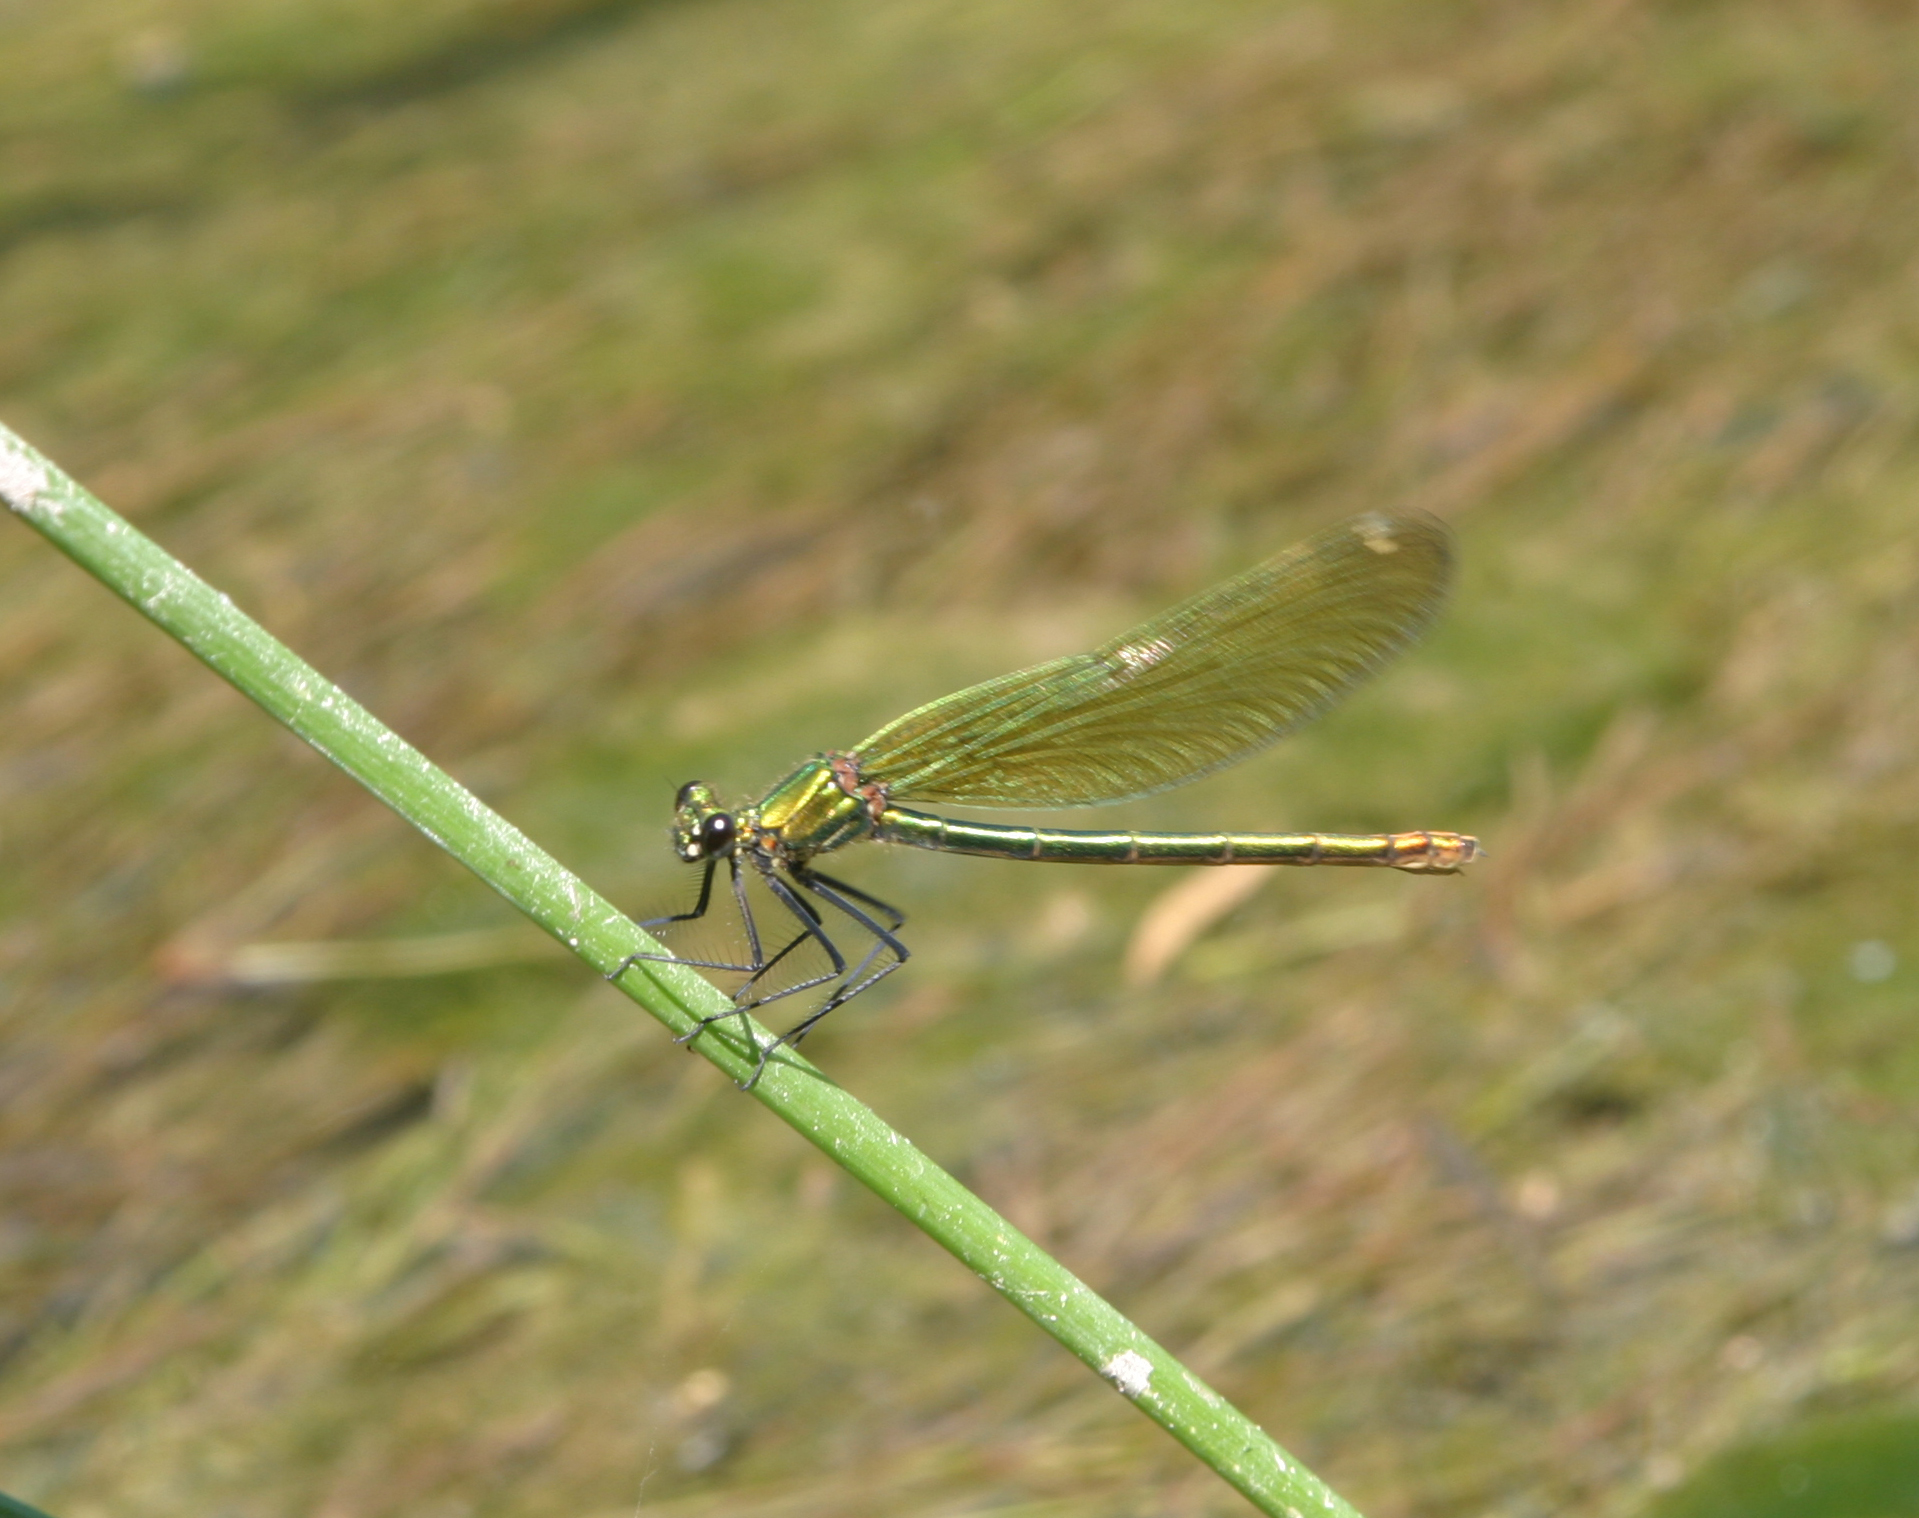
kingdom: Animalia
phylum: Arthropoda
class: Insecta
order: Odonata
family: Calopterygidae
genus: Calopteryx
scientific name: Calopteryx splendens
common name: Banded demoiselle
